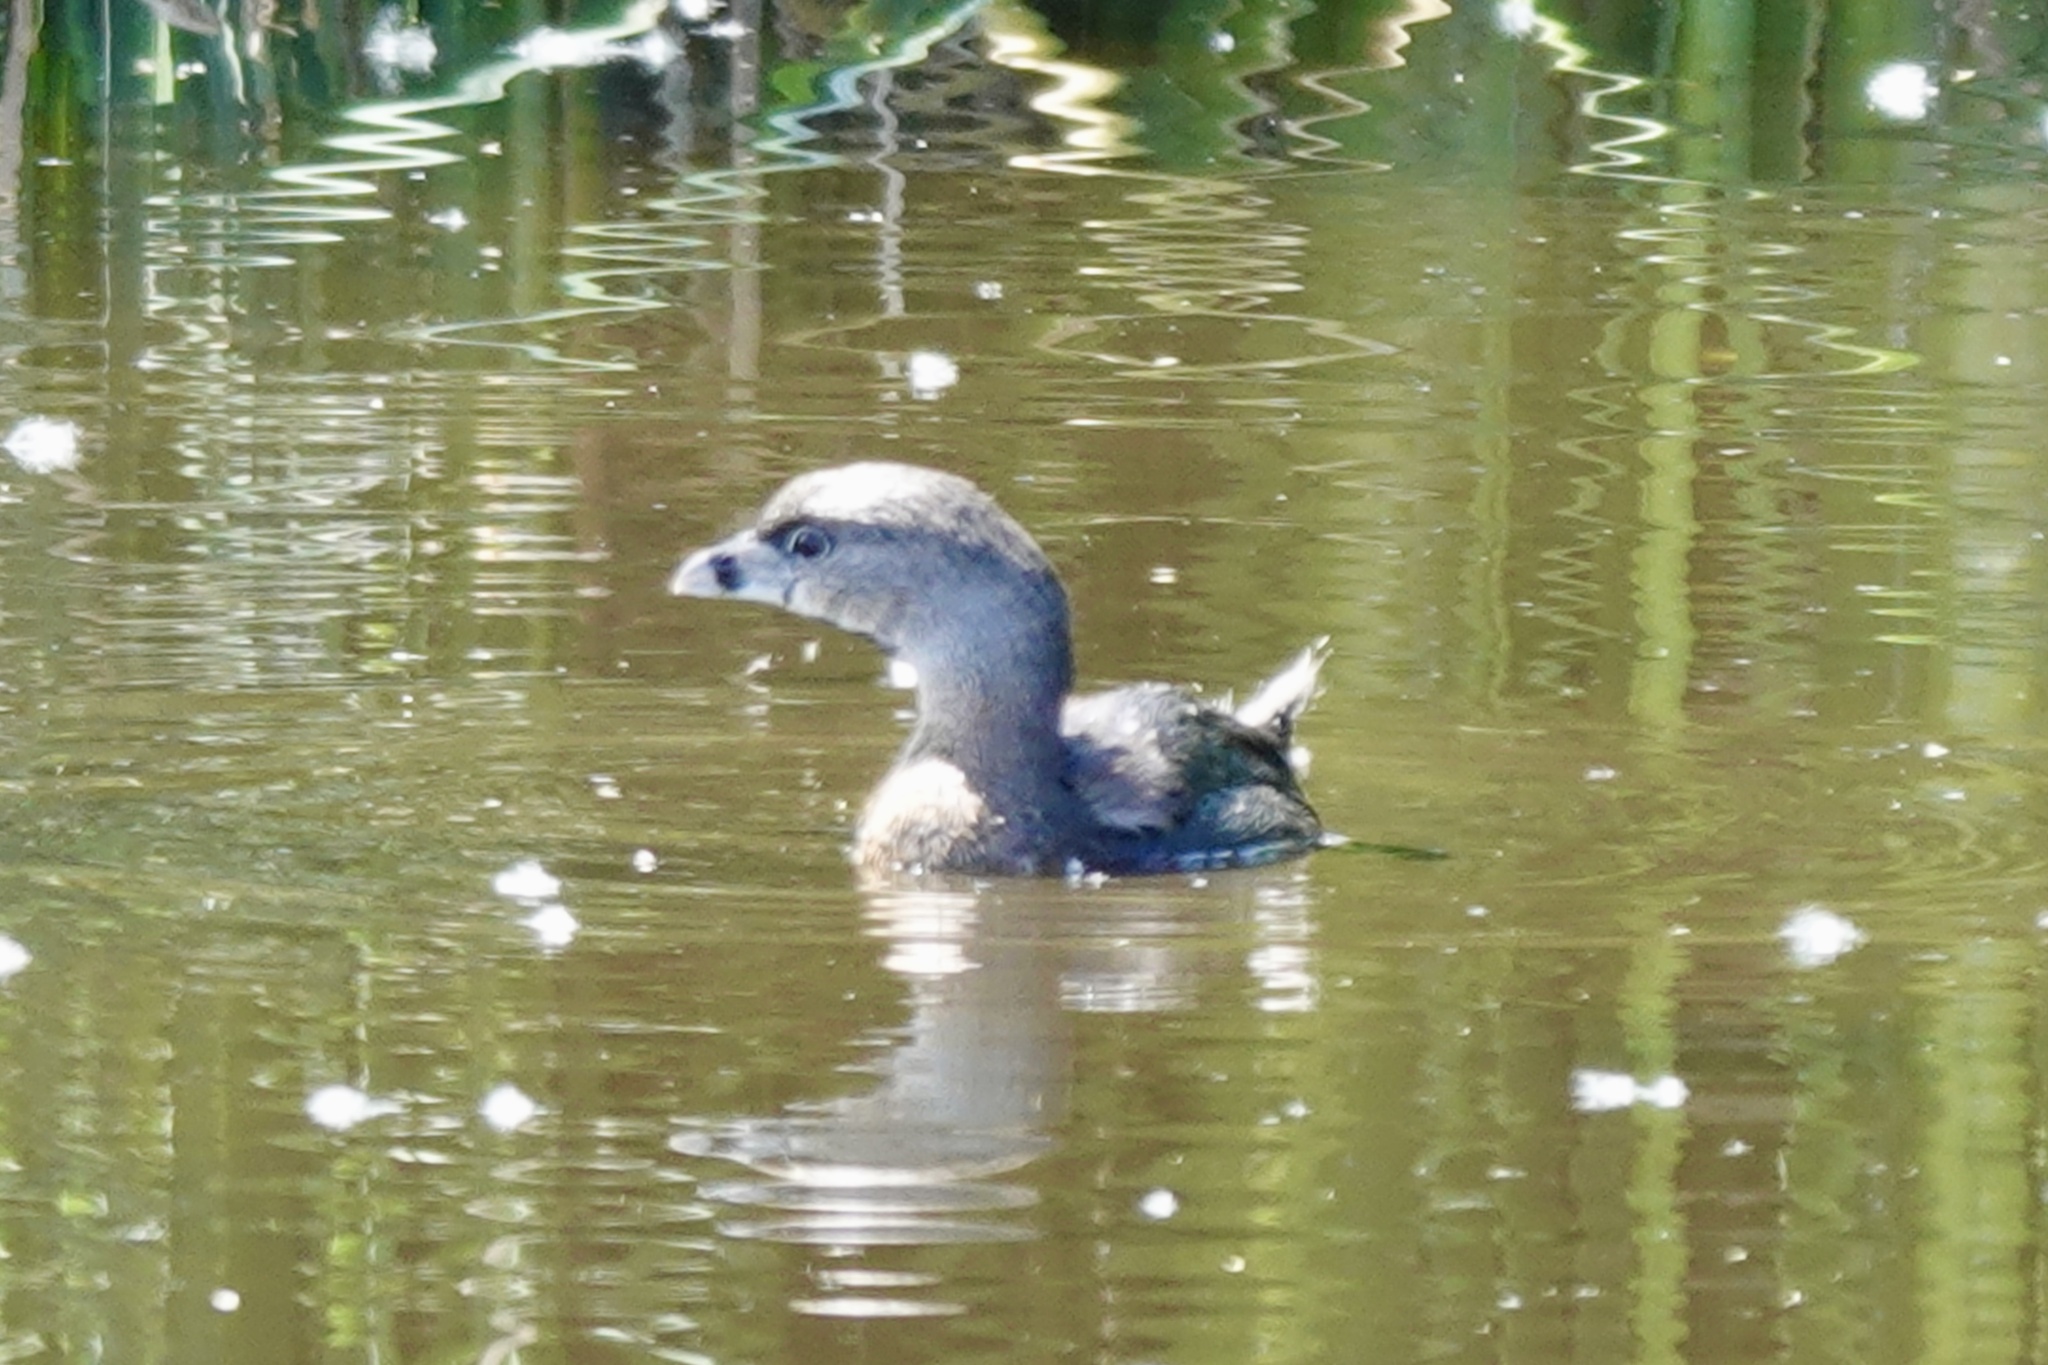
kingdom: Animalia
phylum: Chordata
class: Aves
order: Podicipediformes
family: Podicipedidae
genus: Podilymbus
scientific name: Podilymbus podiceps
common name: Pied-billed grebe
